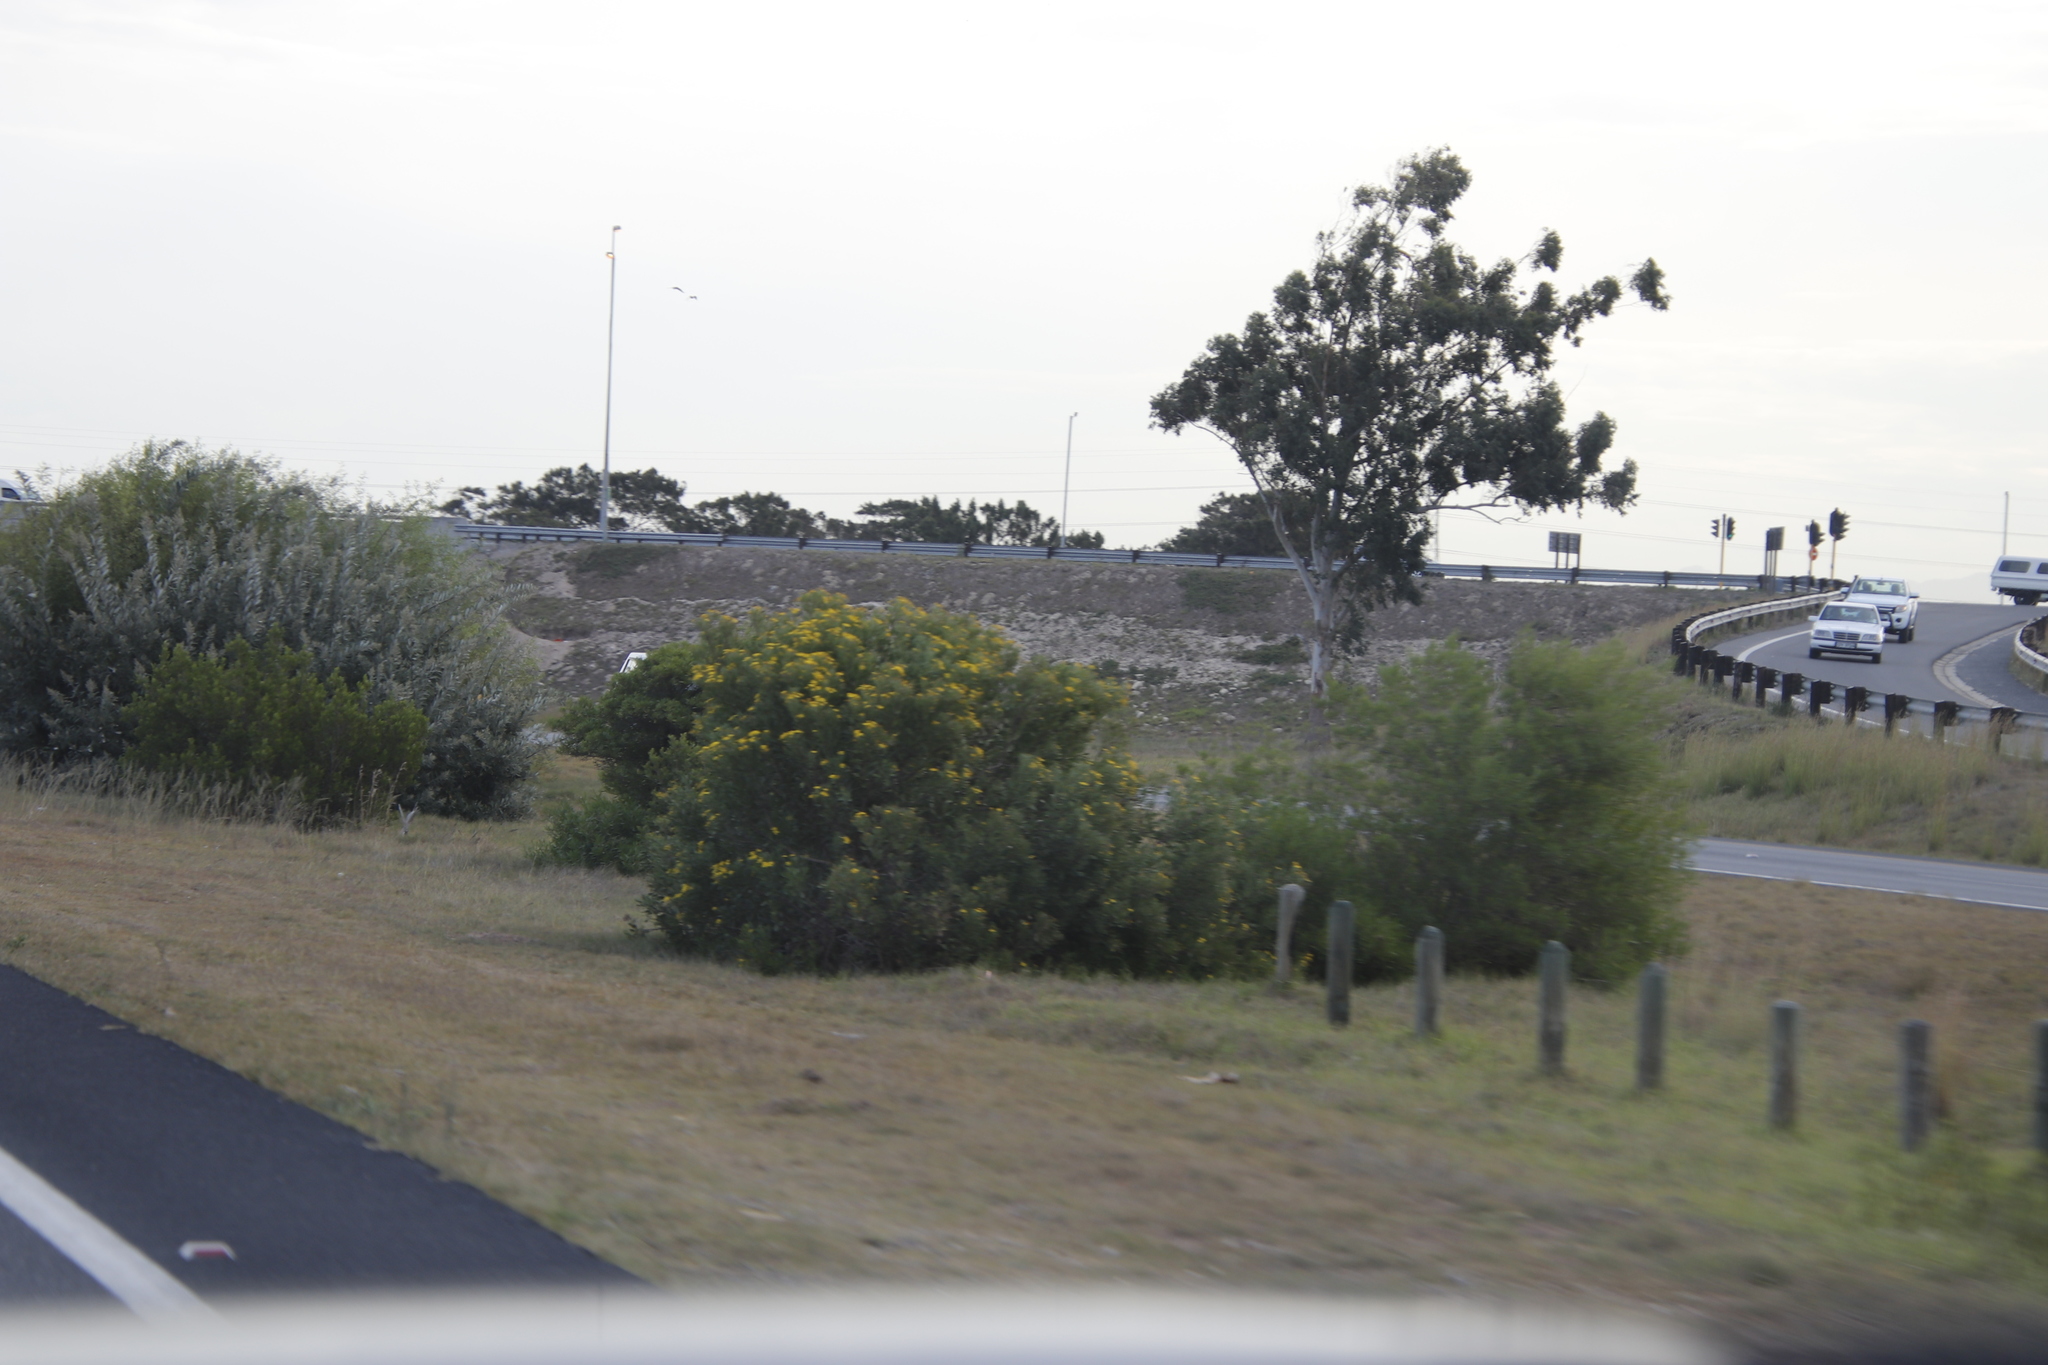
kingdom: Plantae
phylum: Tracheophyta
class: Magnoliopsida
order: Asterales
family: Asteraceae
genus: Osteospermum
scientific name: Osteospermum moniliferum
